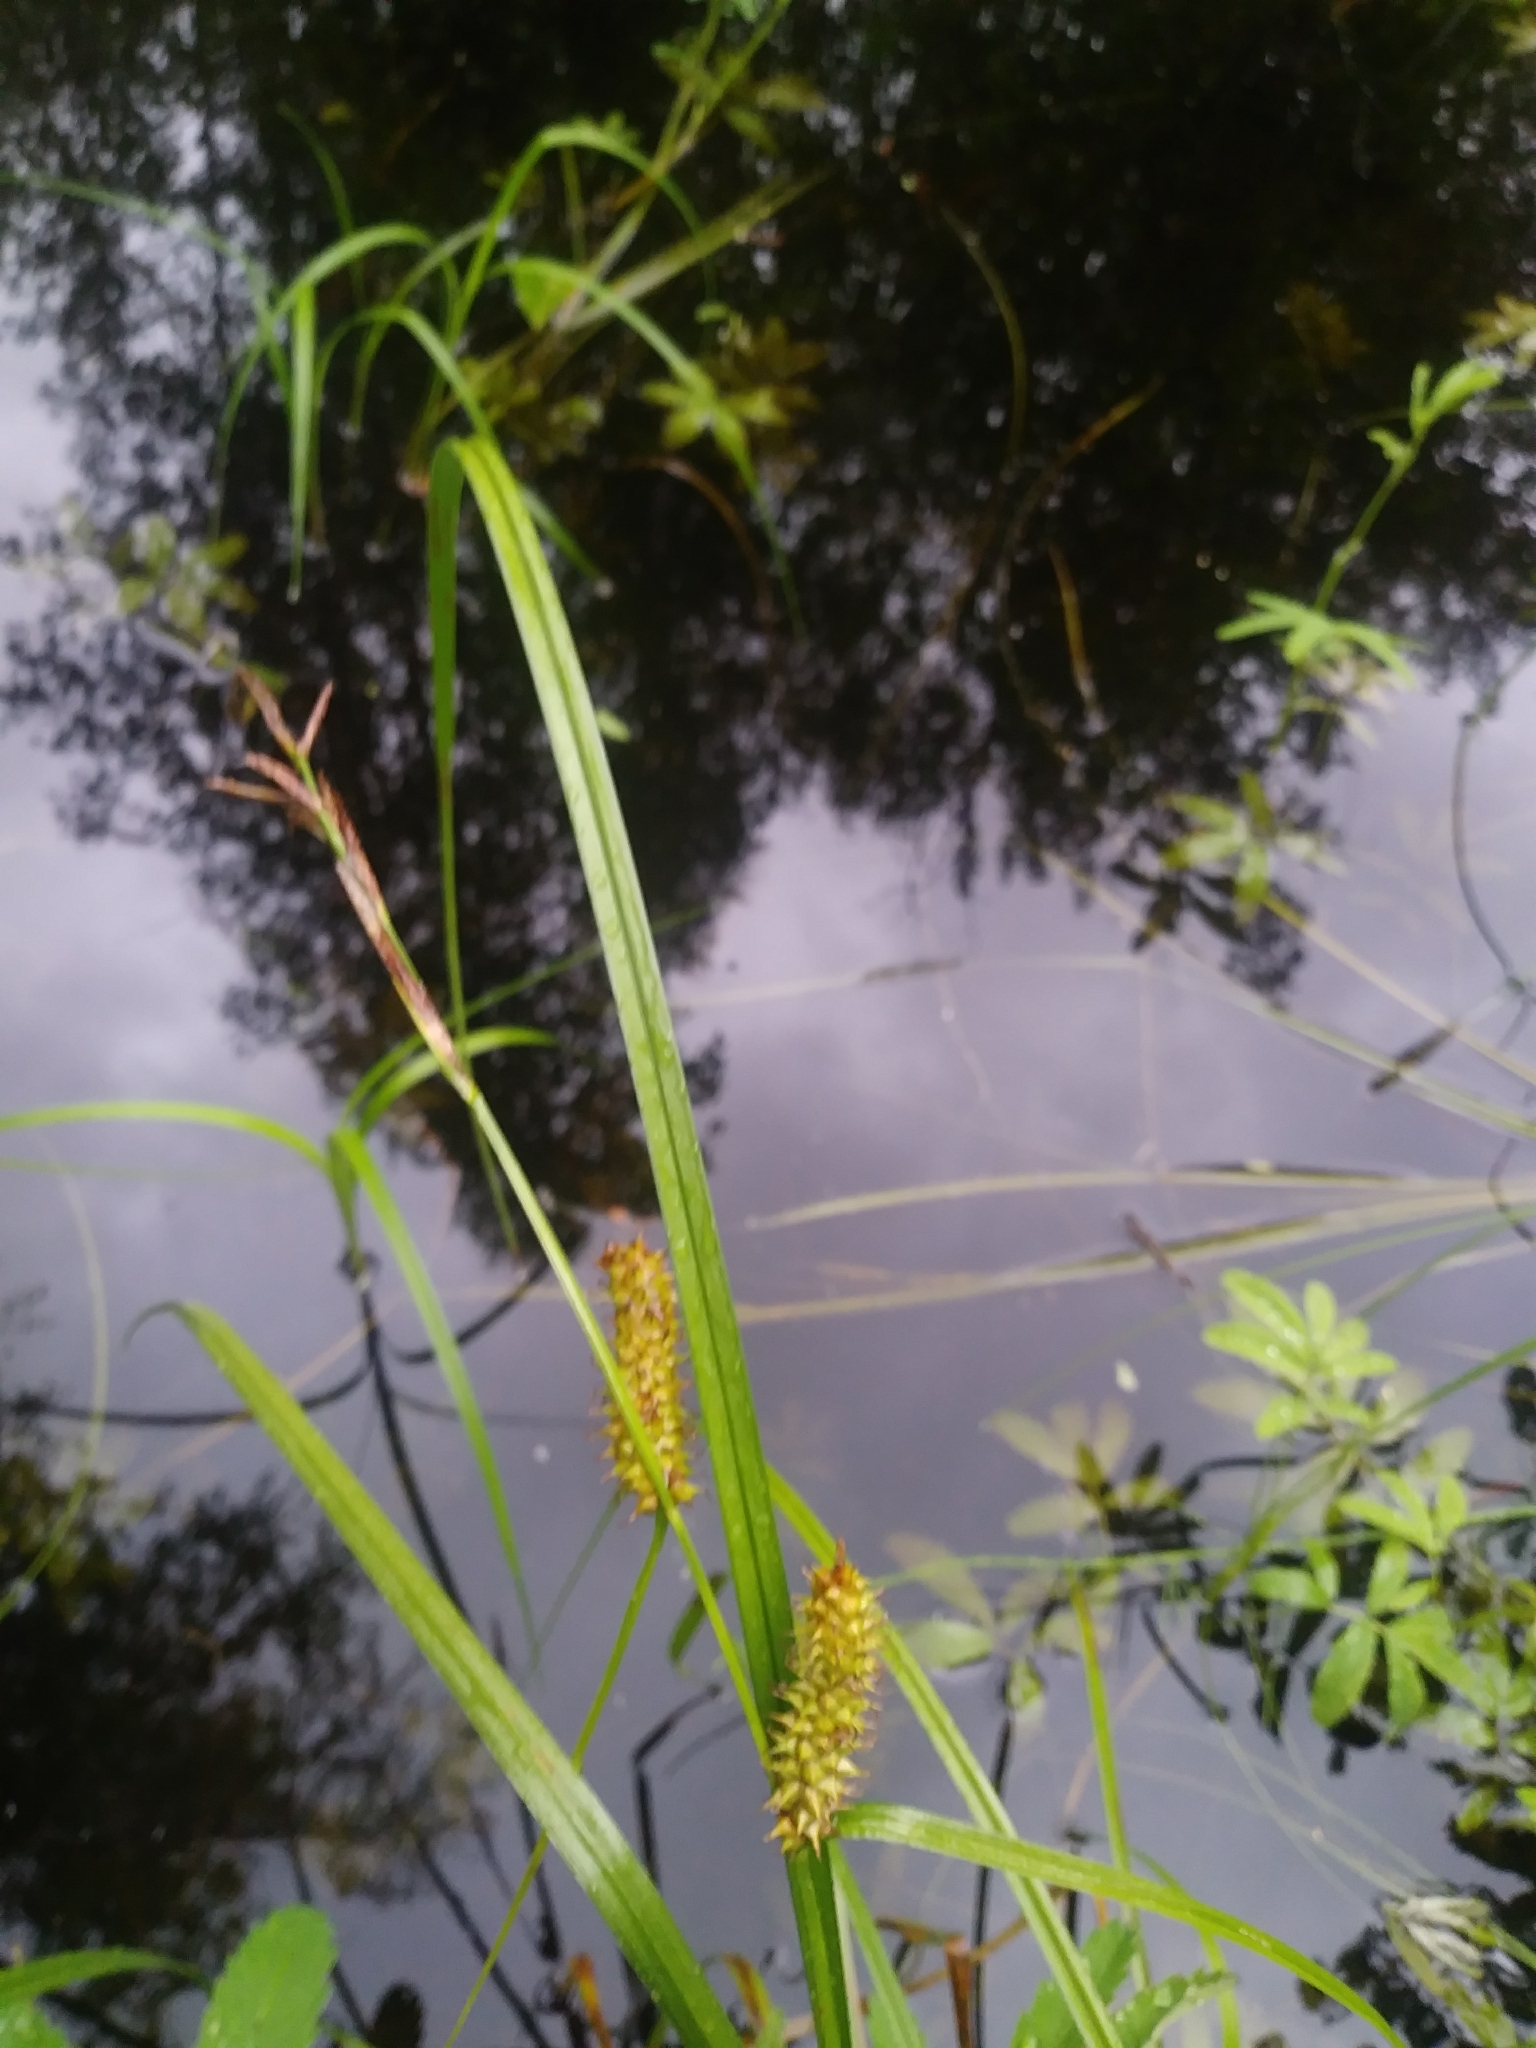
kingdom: Plantae
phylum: Tracheophyta
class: Liliopsida
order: Poales
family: Cyperaceae
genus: Carex
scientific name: Carex utriculata
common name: Beaked sedge
